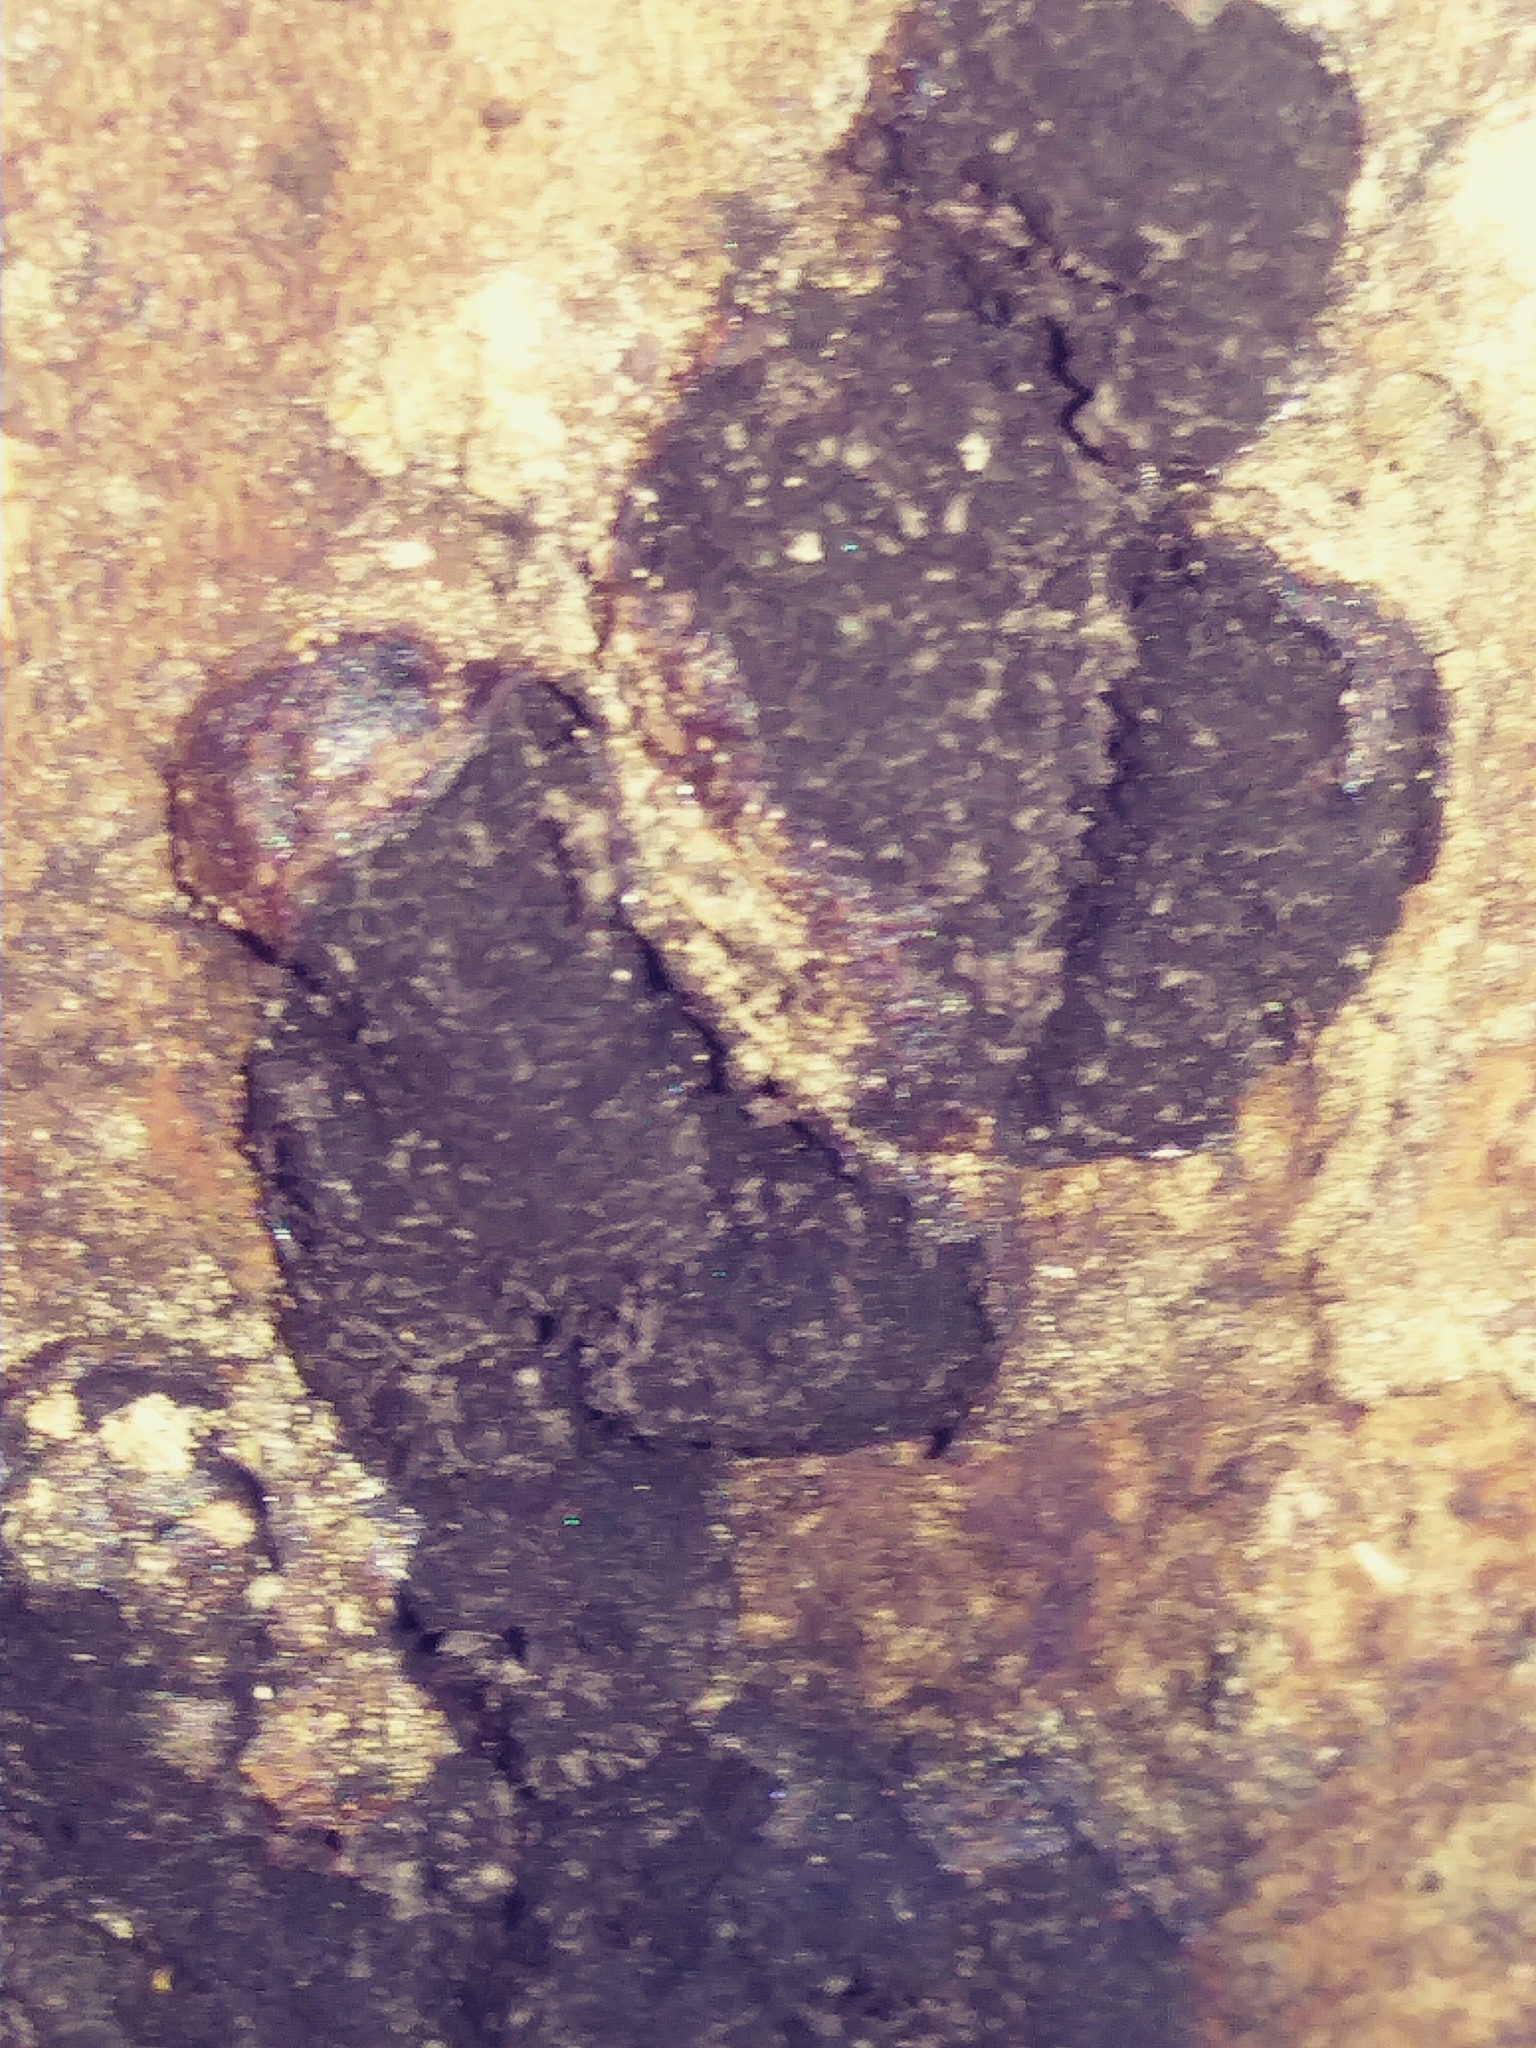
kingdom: Fungi
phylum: Ascomycota
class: Sordariomycetes
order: Xylariales
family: Hypoxylaceae
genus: Annulohypoxylon
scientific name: Annulohypoxylon thouarsianum
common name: Cramp balls
